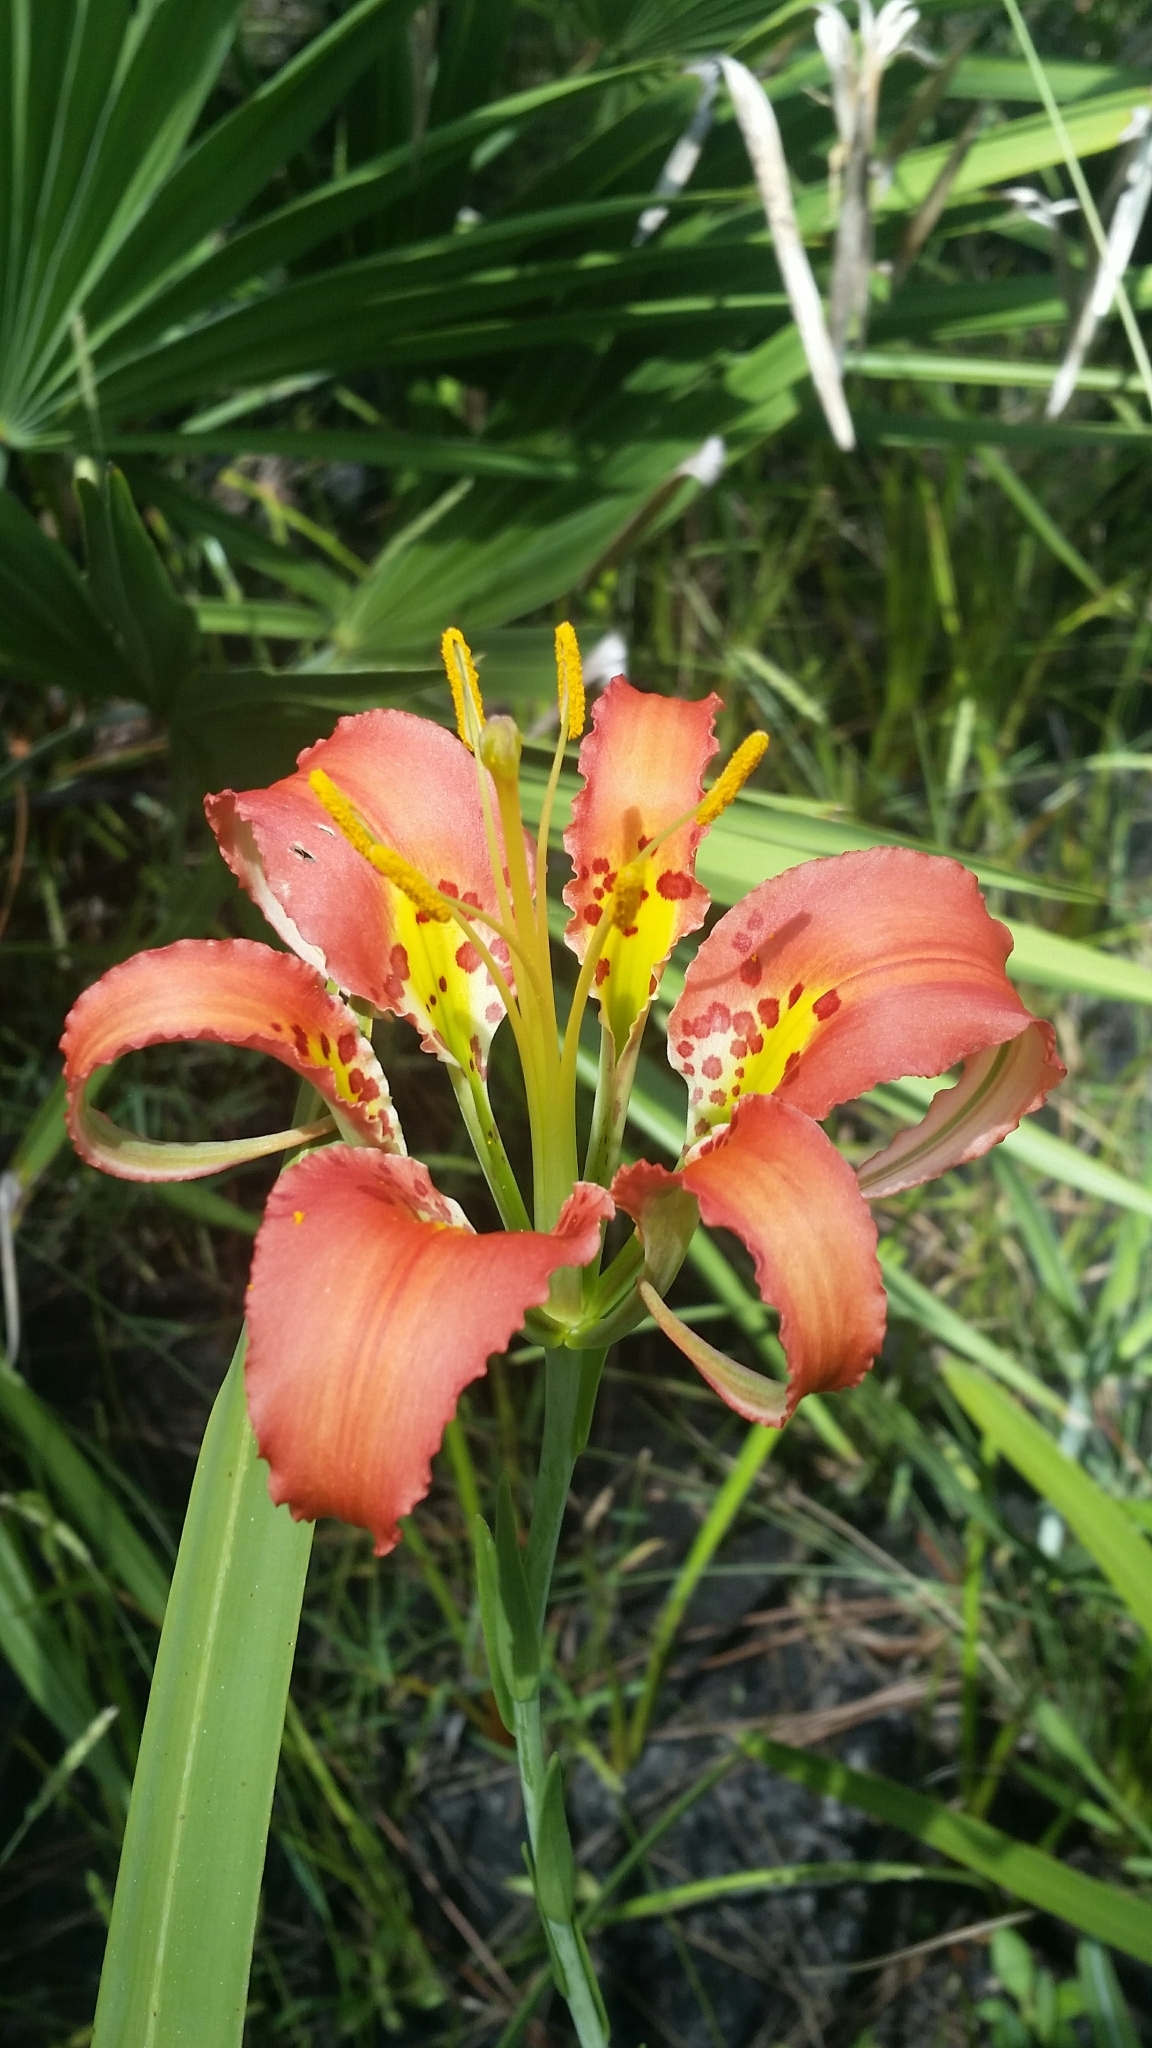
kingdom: Plantae
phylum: Tracheophyta
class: Liliopsida
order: Liliales
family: Liliaceae
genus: Lilium
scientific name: Lilium catesbaei
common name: Catesby's lily
